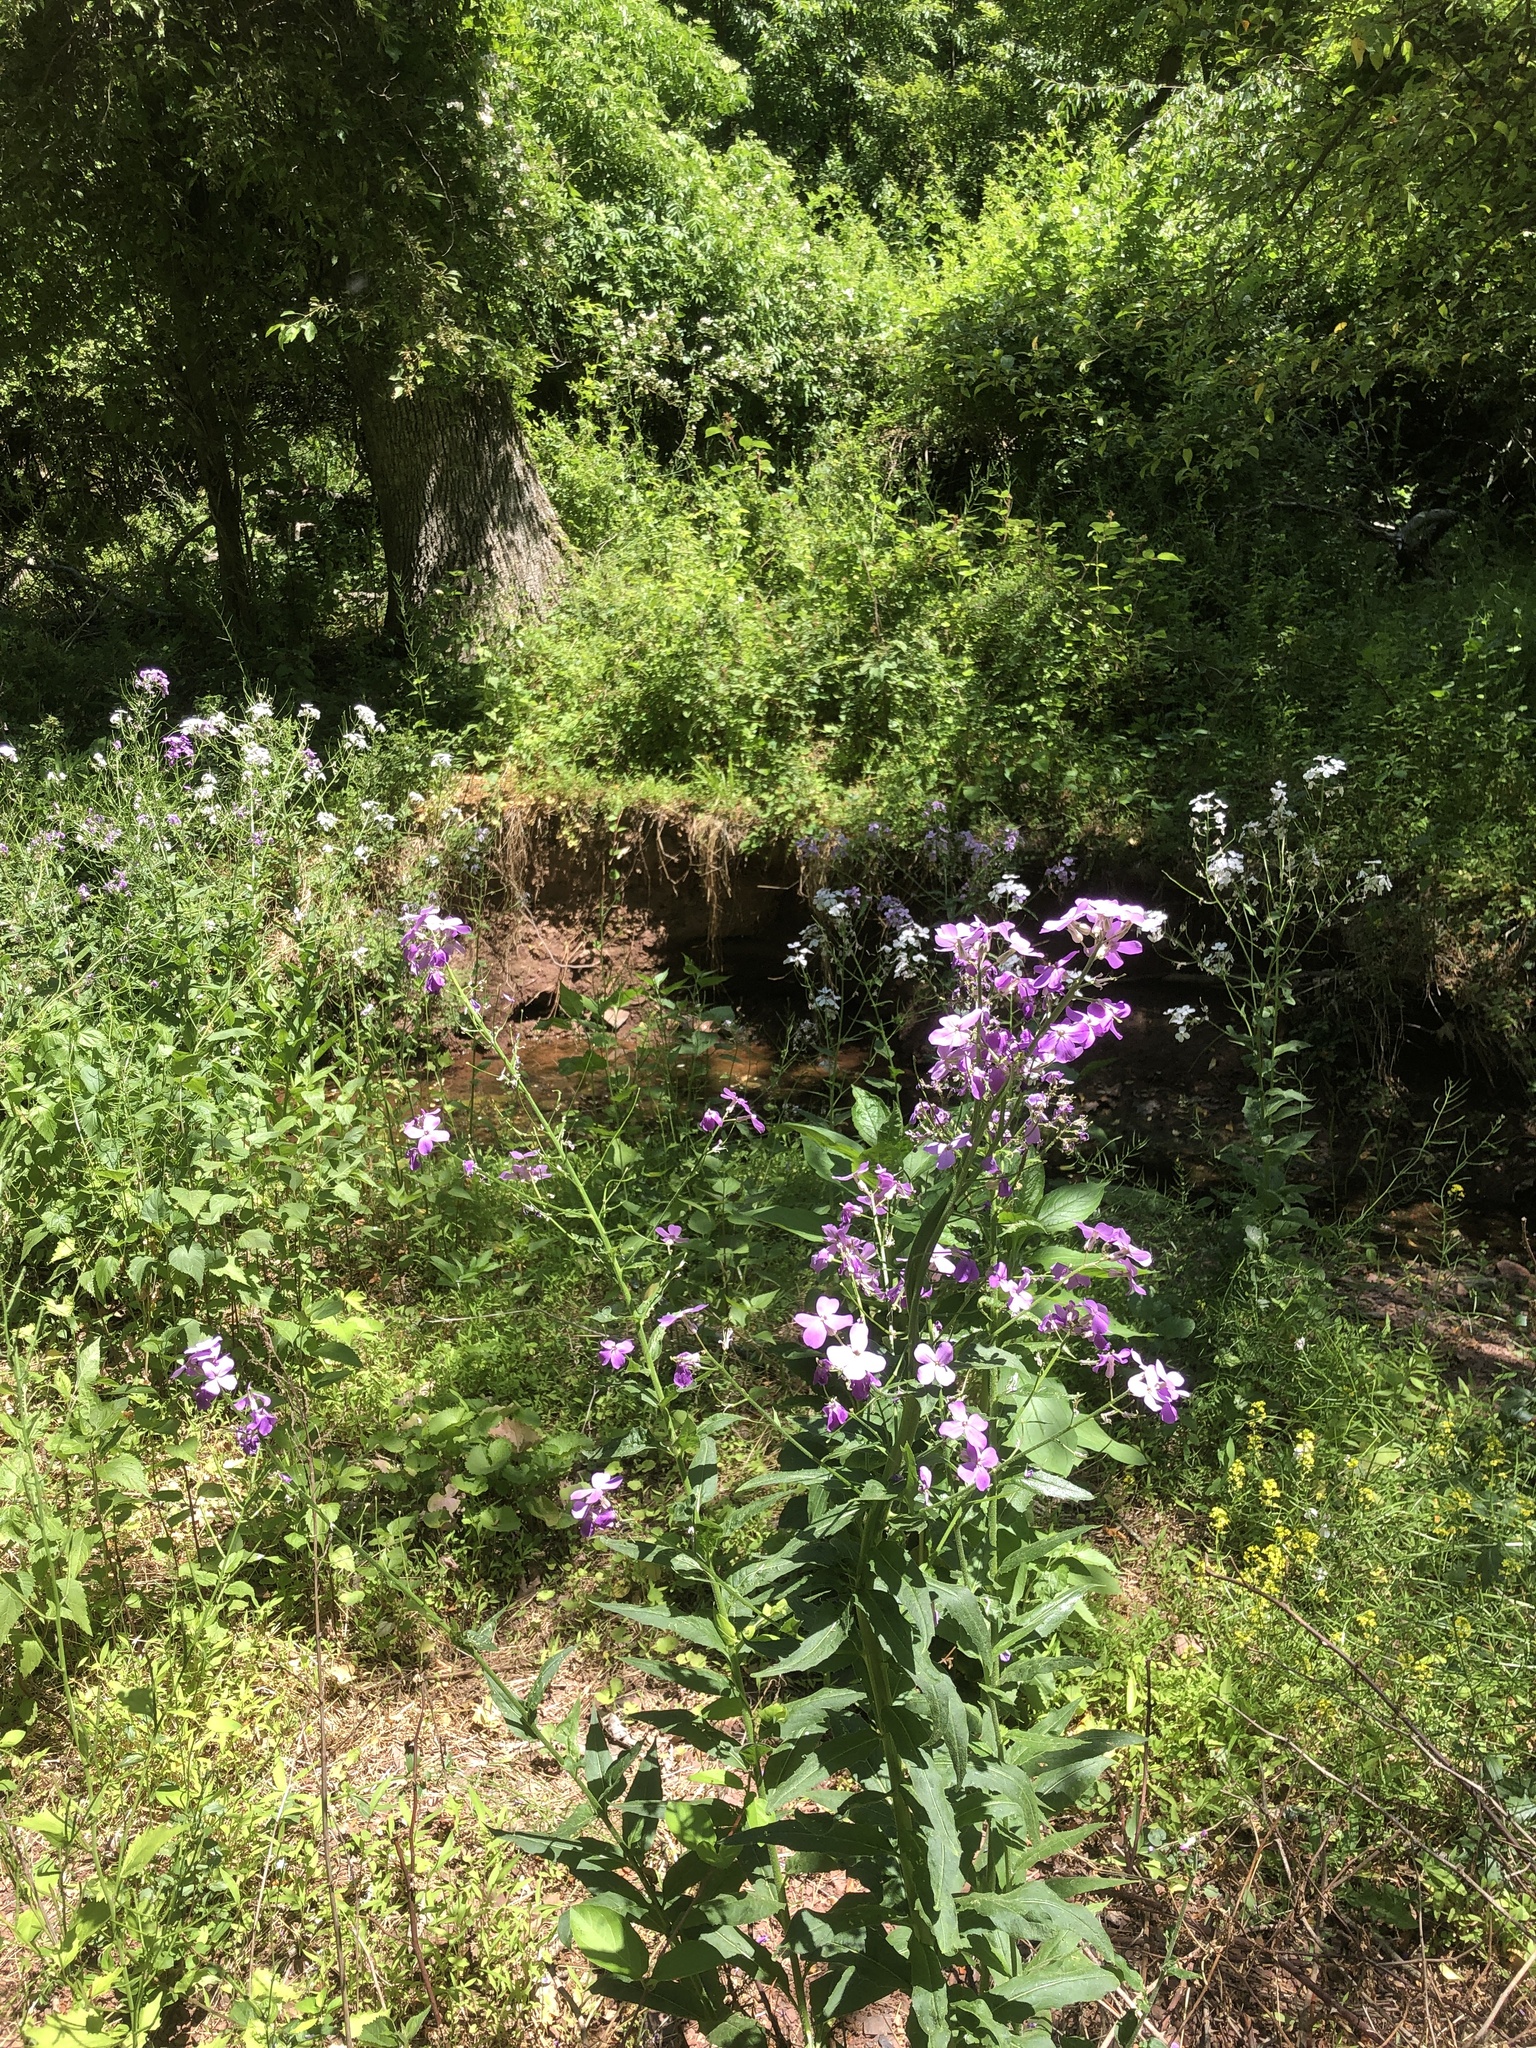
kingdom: Plantae
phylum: Tracheophyta
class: Magnoliopsida
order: Brassicales
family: Brassicaceae
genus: Hesperis
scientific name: Hesperis matronalis
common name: Dame's-violet
